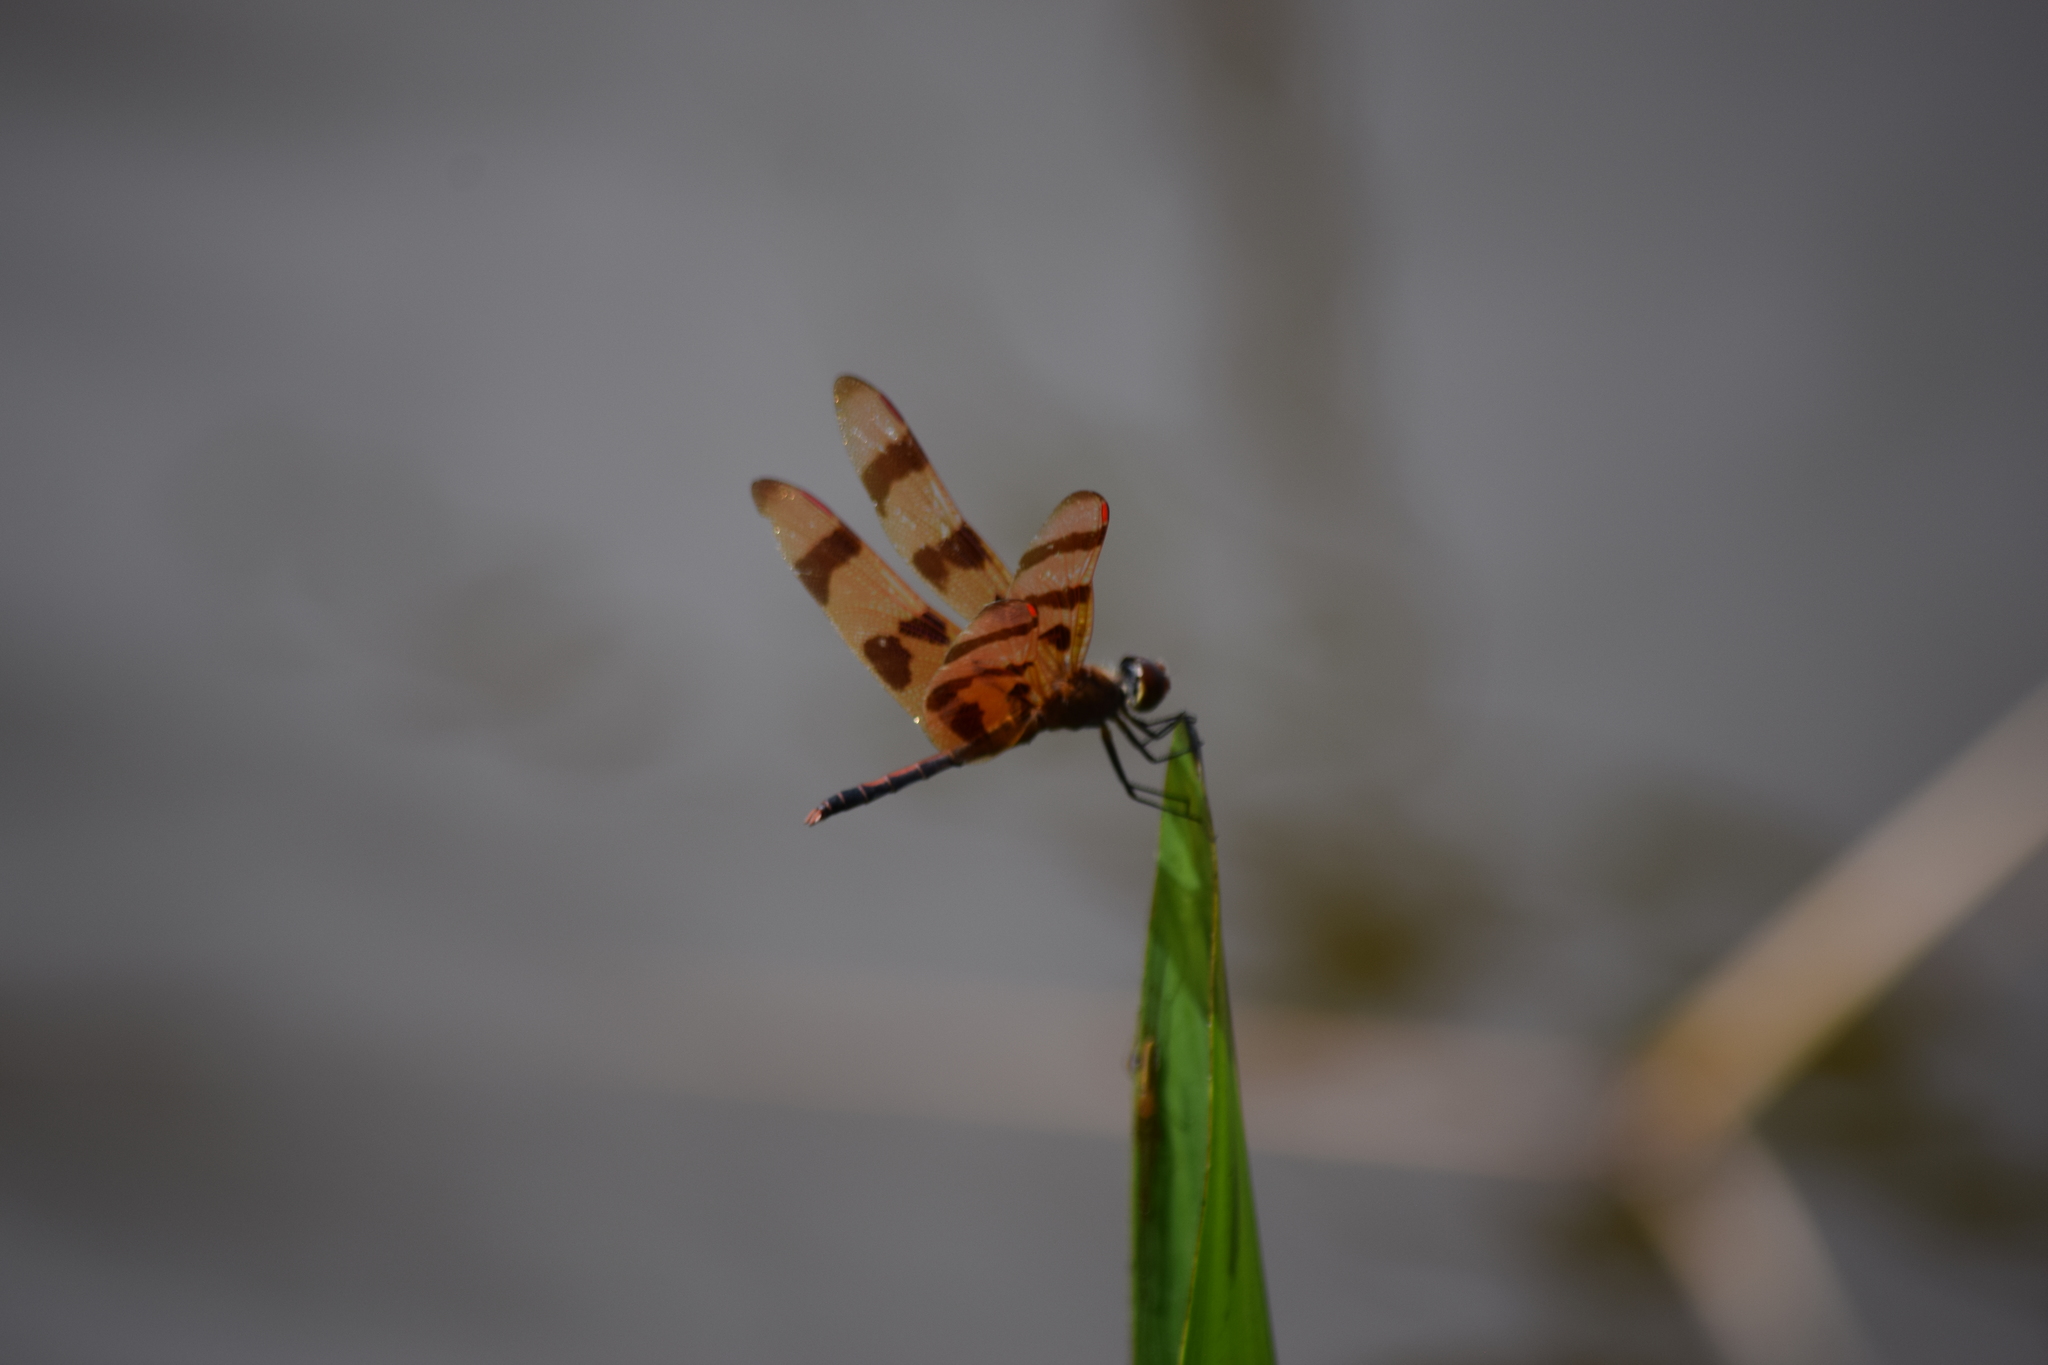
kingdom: Animalia
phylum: Arthropoda
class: Insecta
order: Odonata
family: Libellulidae
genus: Celithemis
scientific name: Celithemis eponina
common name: Halloween pennant
